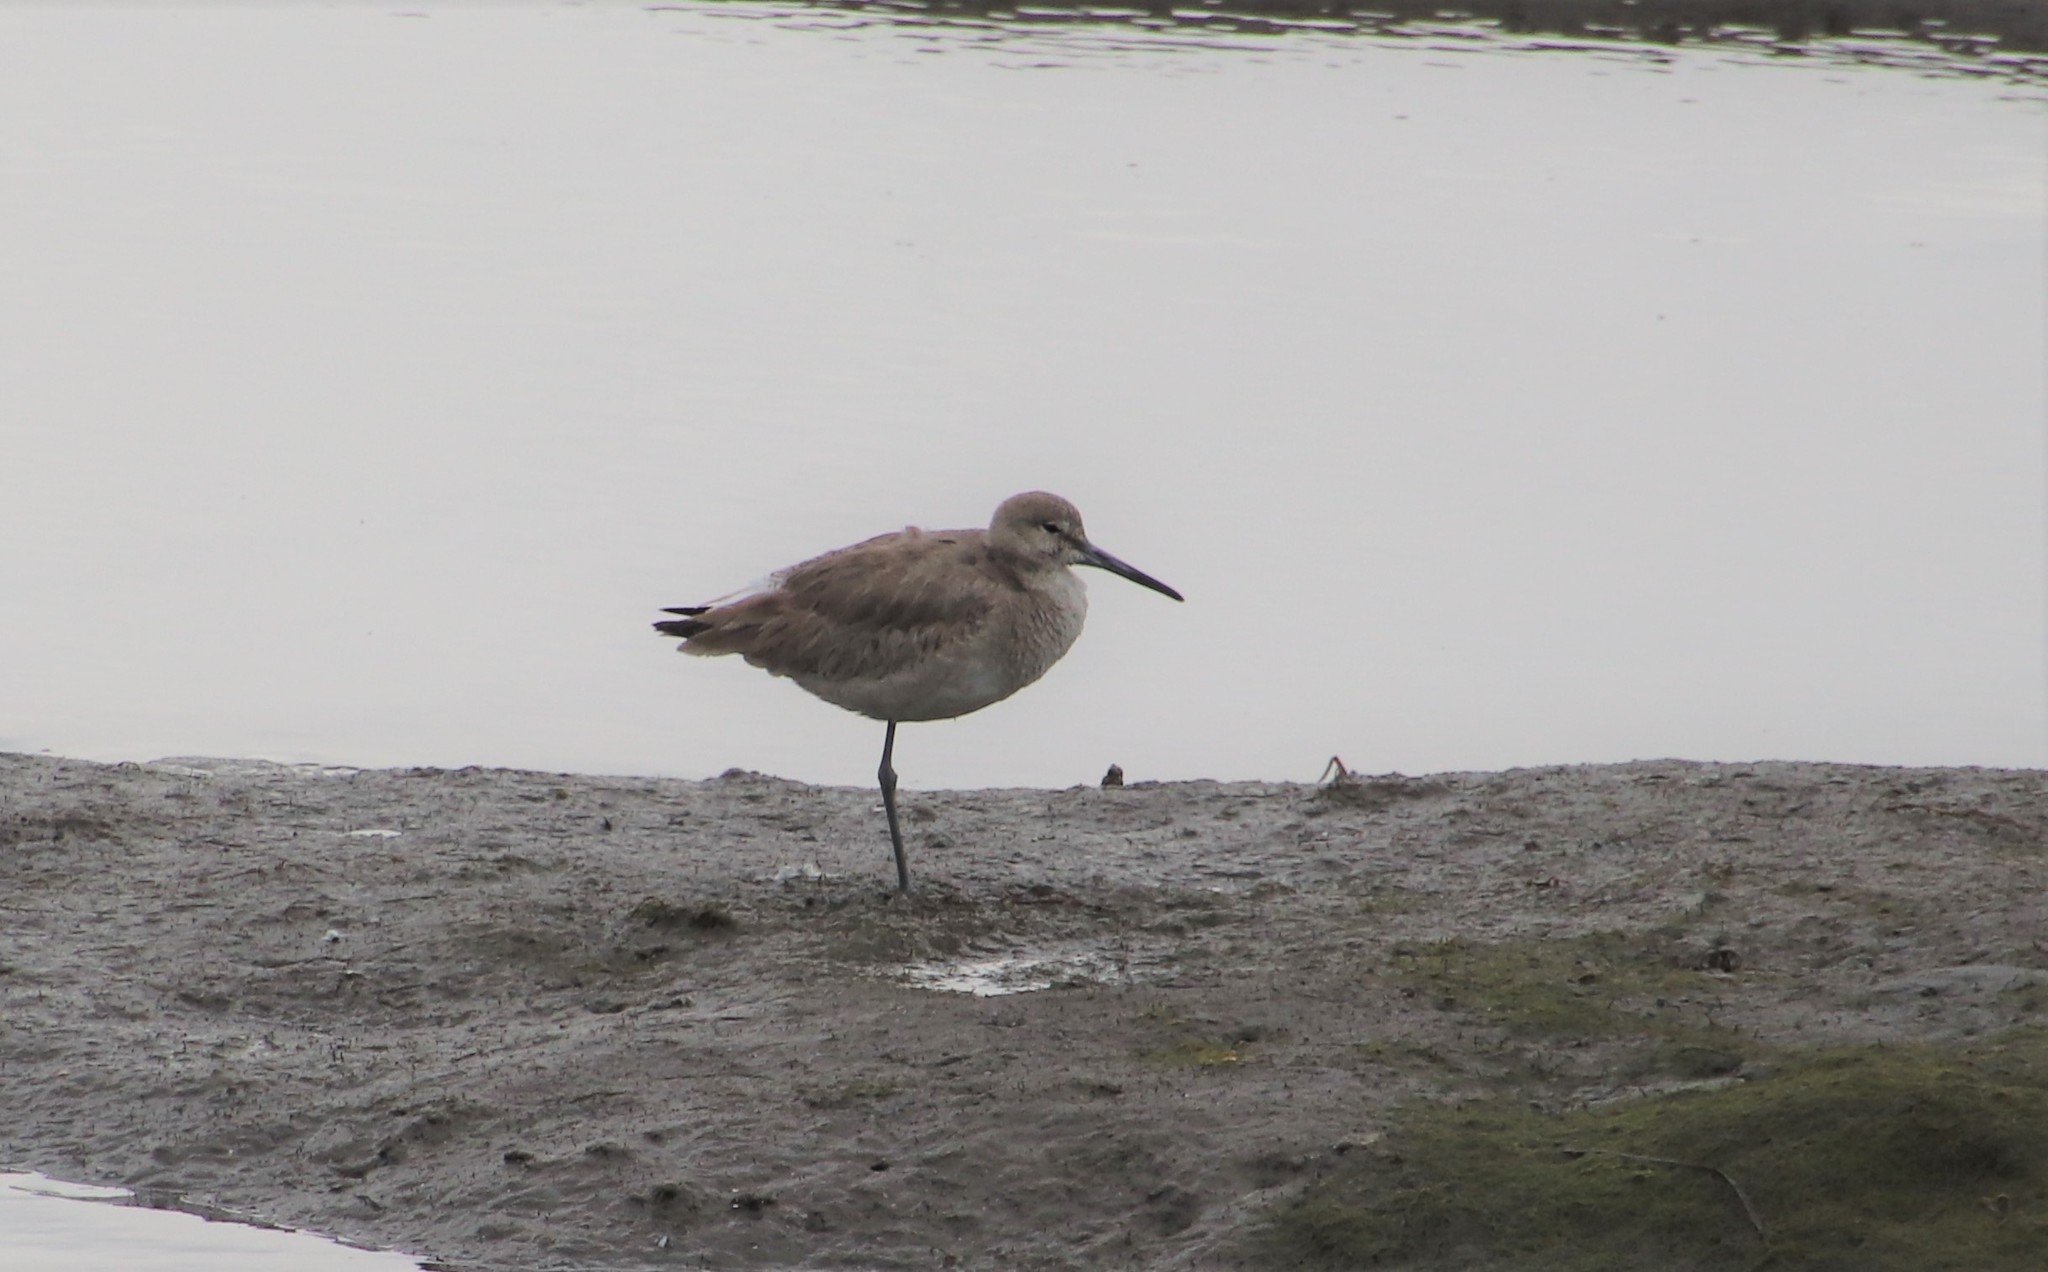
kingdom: Animalia
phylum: Chordata
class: Aves
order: Charadriiformes
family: Scolopacidae
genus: Tringa
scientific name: Tringa semipalmata
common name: Willet
